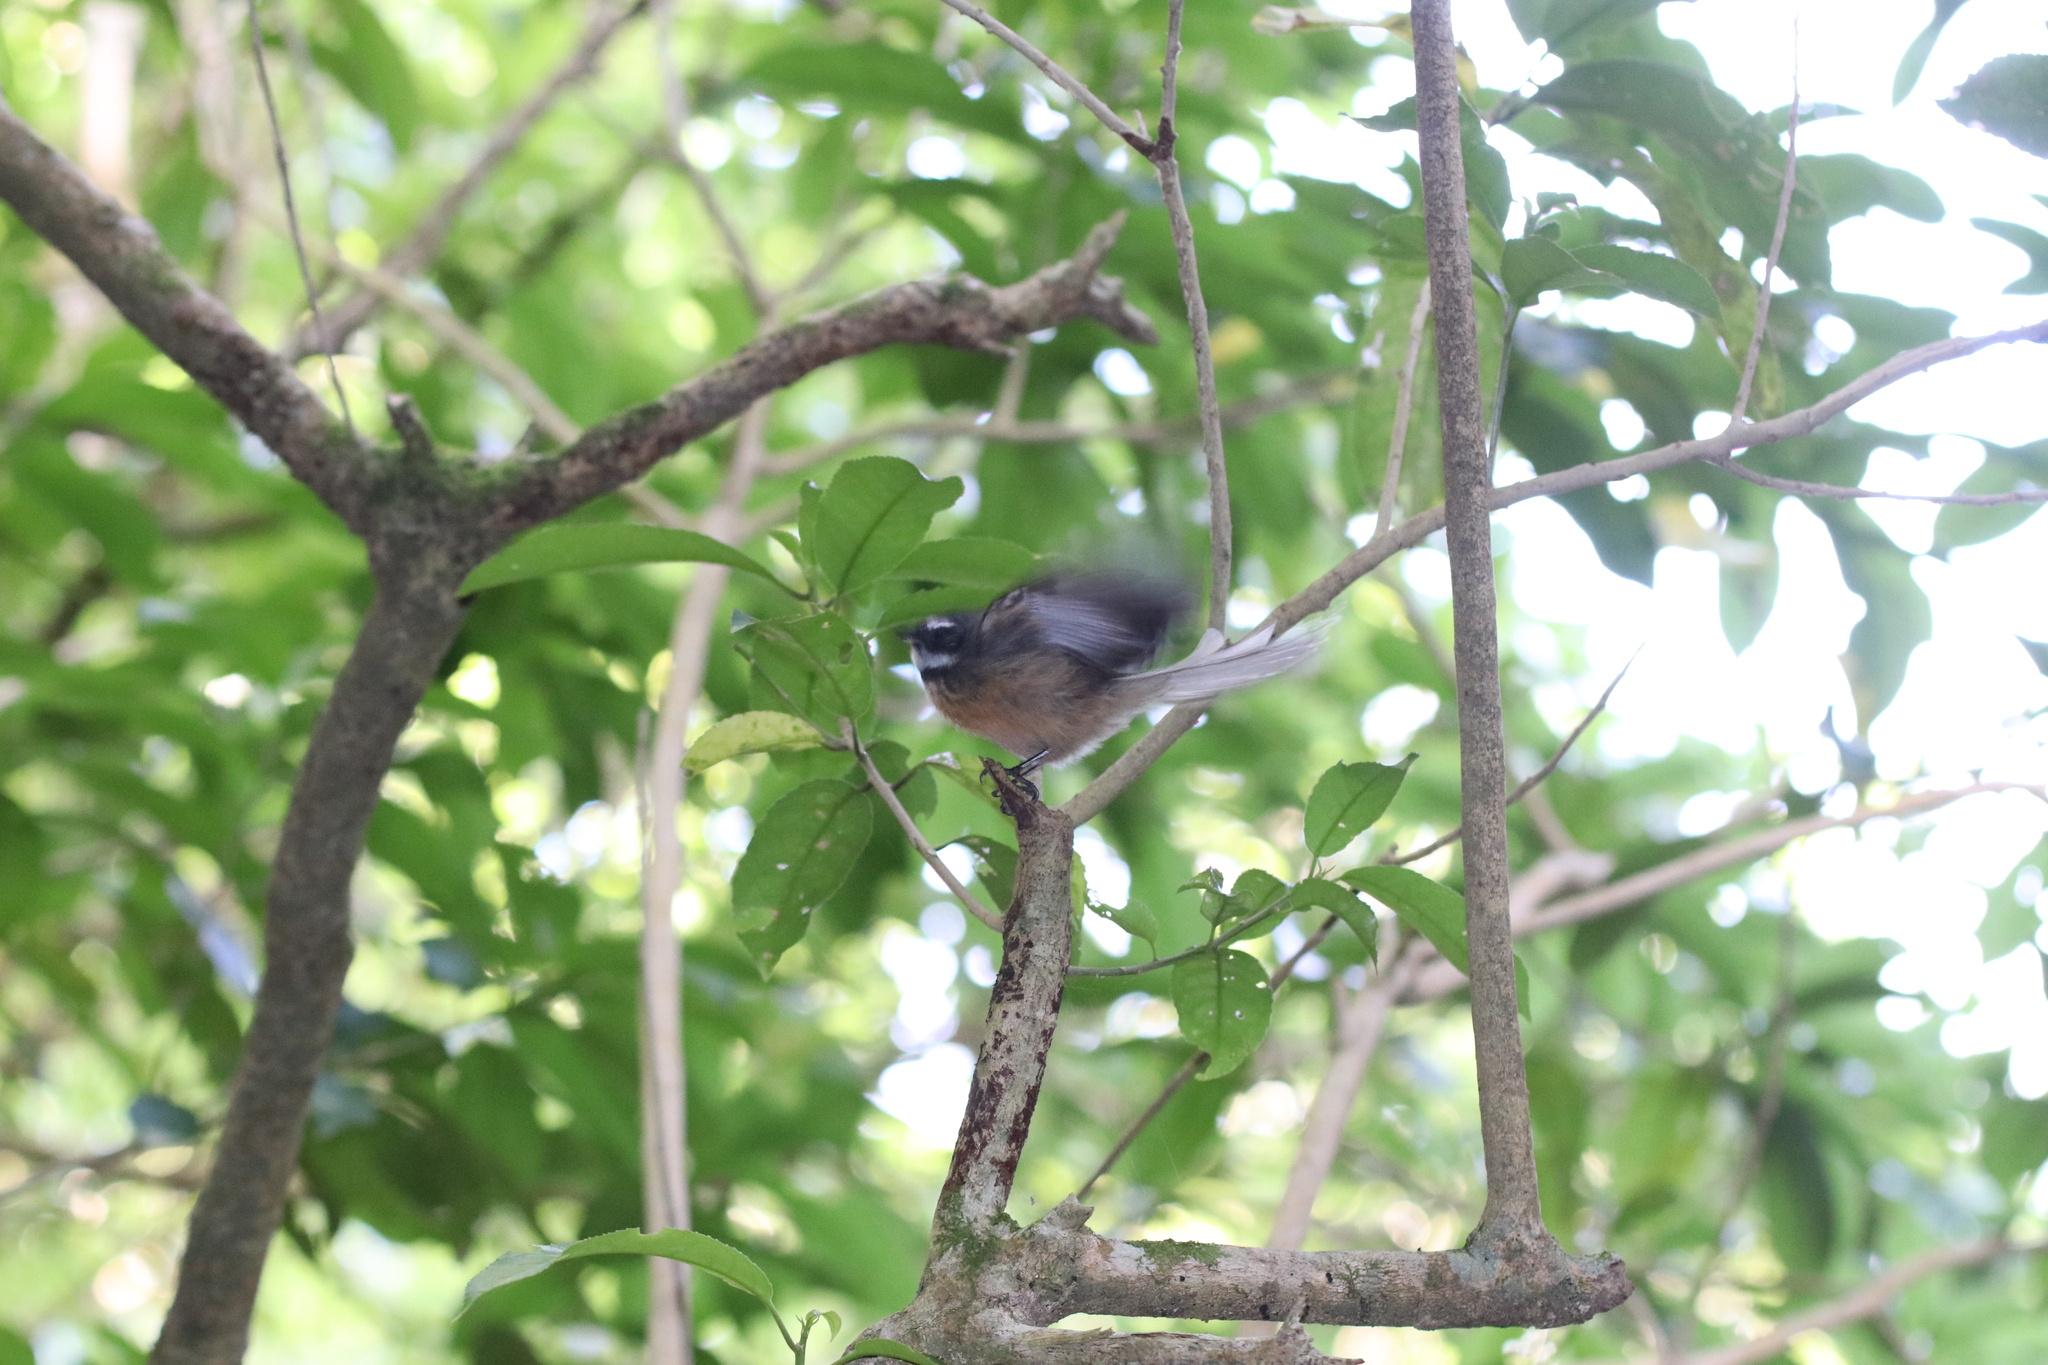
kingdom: Animalia
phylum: Chordata
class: Aves
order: Passeriformes
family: Rhipiduridae
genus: Rhipidura
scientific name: Rhipidura fuliginosa
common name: New zealand fantail
